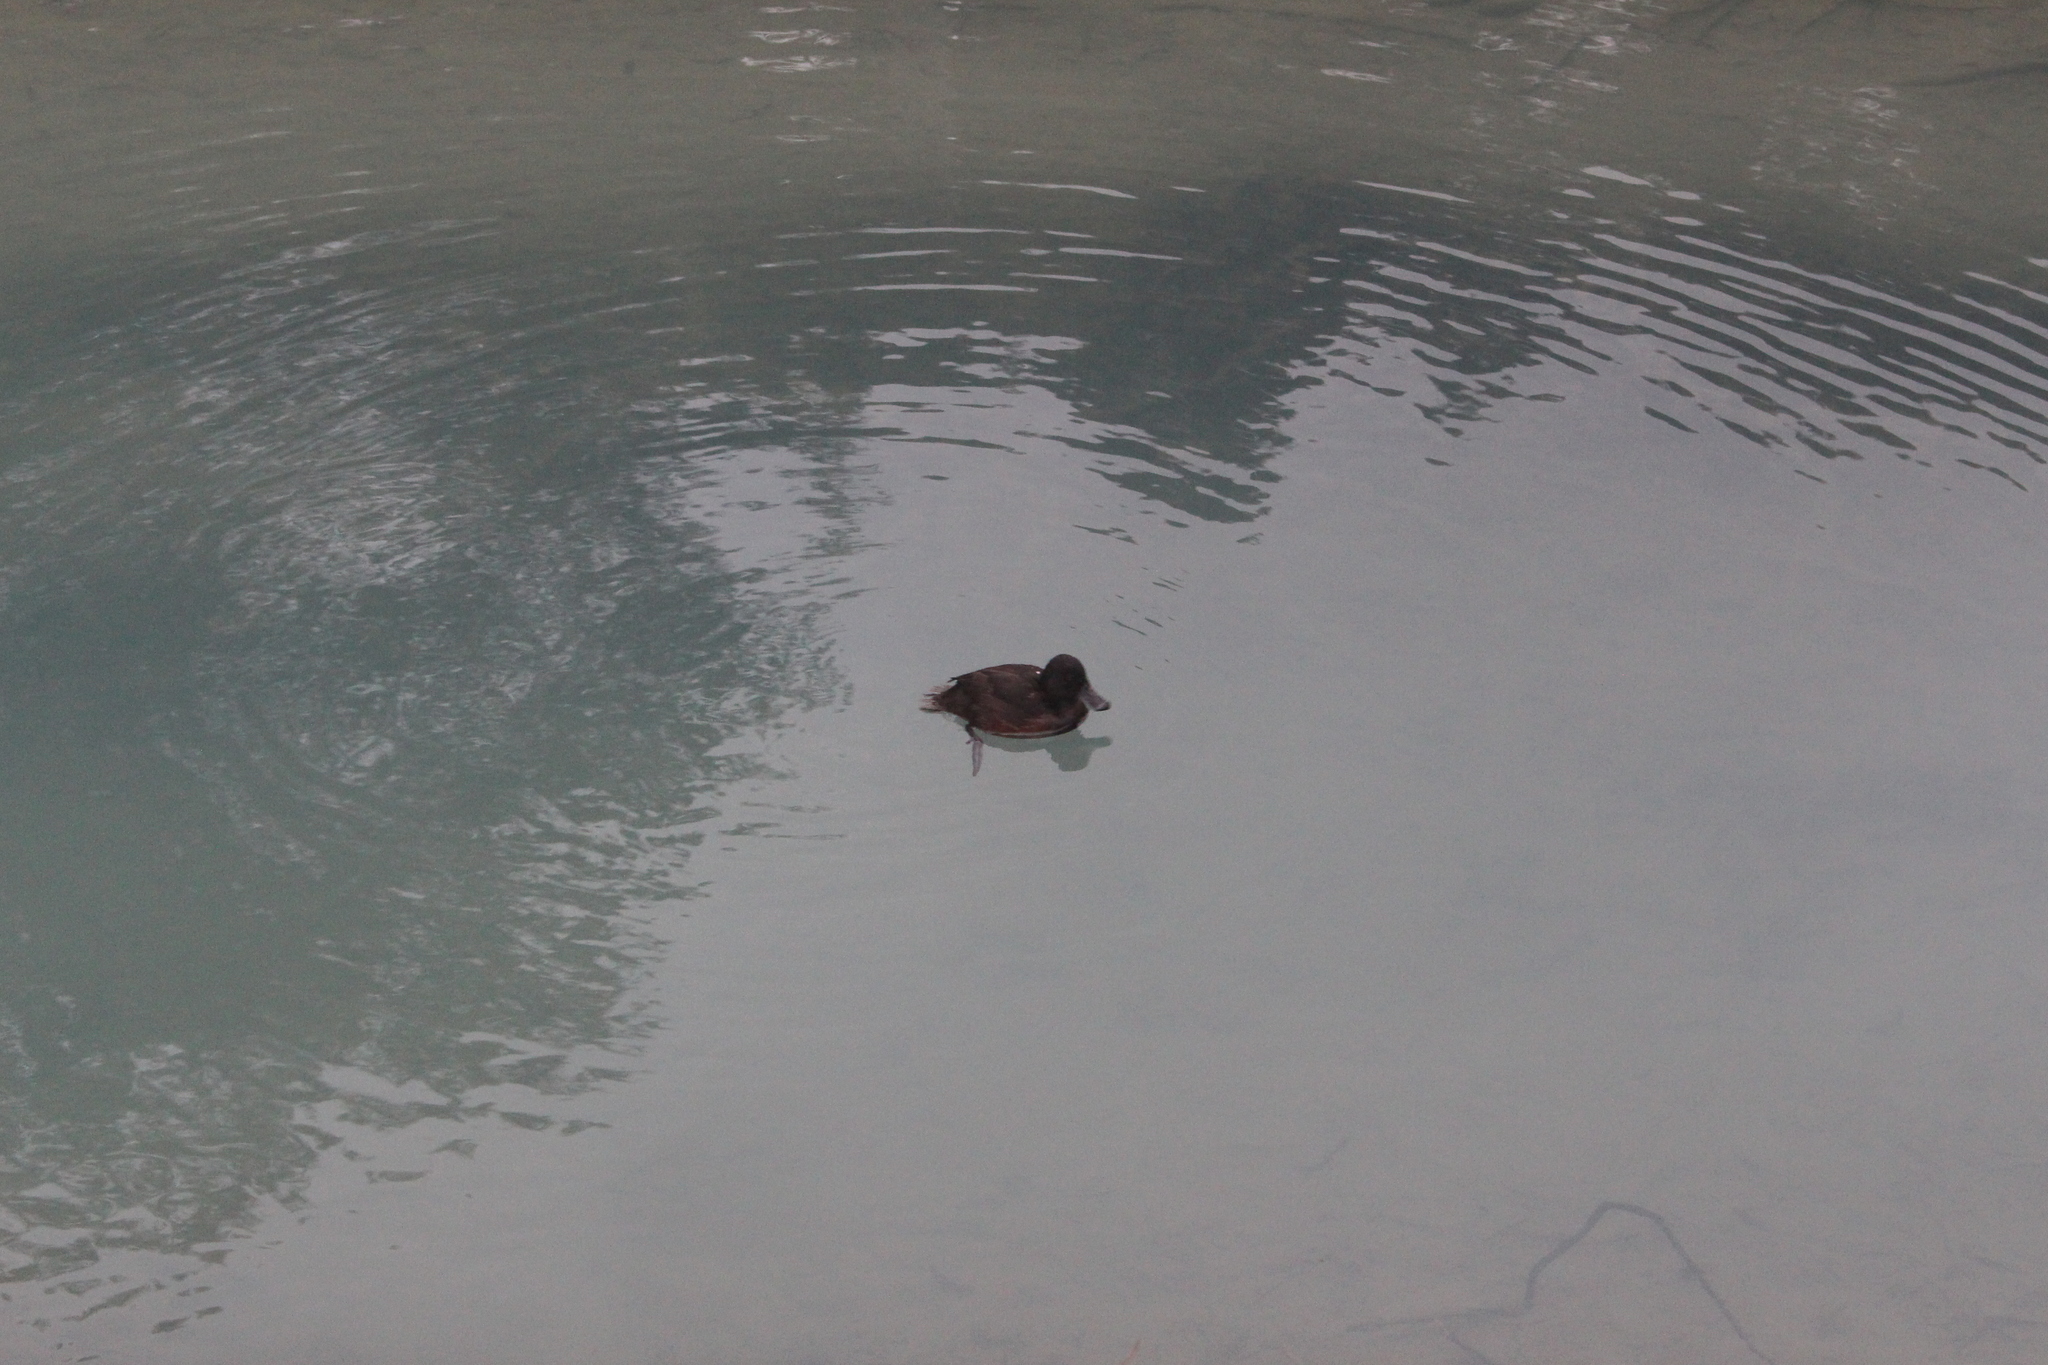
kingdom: Animalia
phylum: Chordata
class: Aves
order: Anseriformes
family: Anatidae
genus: Aythya
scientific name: Aythya novaeseelandiae
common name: New zealand scaup
